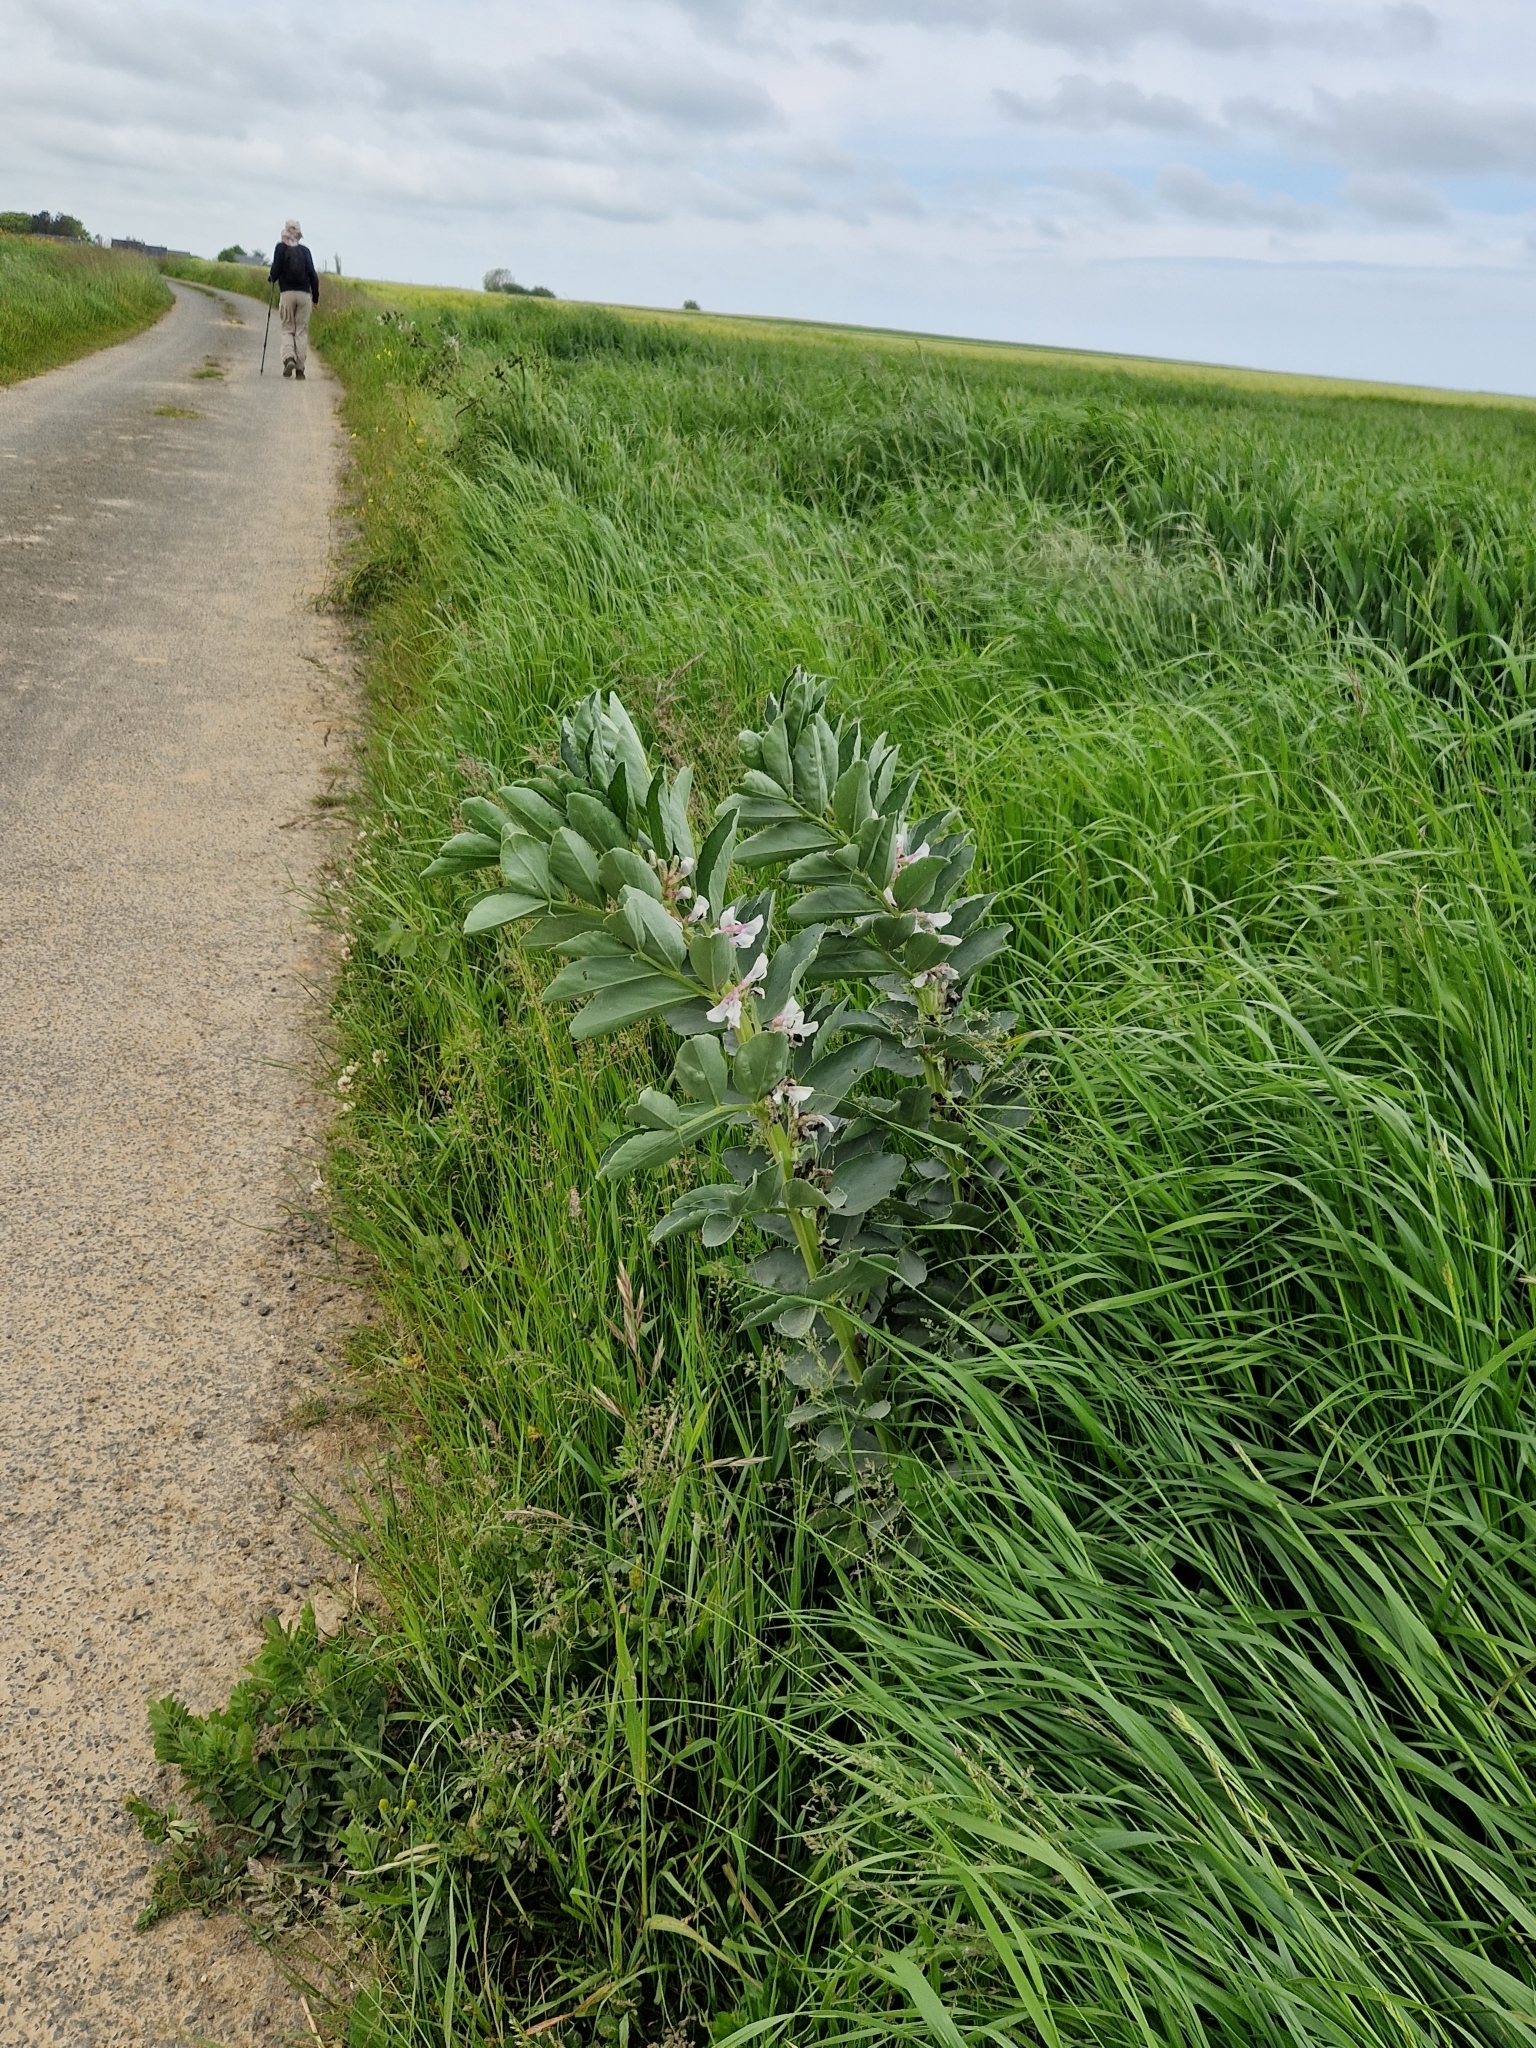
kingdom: Plantae
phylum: Tracheophyta
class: Magnoliopsida
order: Fabales
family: Fabaceae
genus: Vicia
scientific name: Vicia faba
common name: Broad bean
